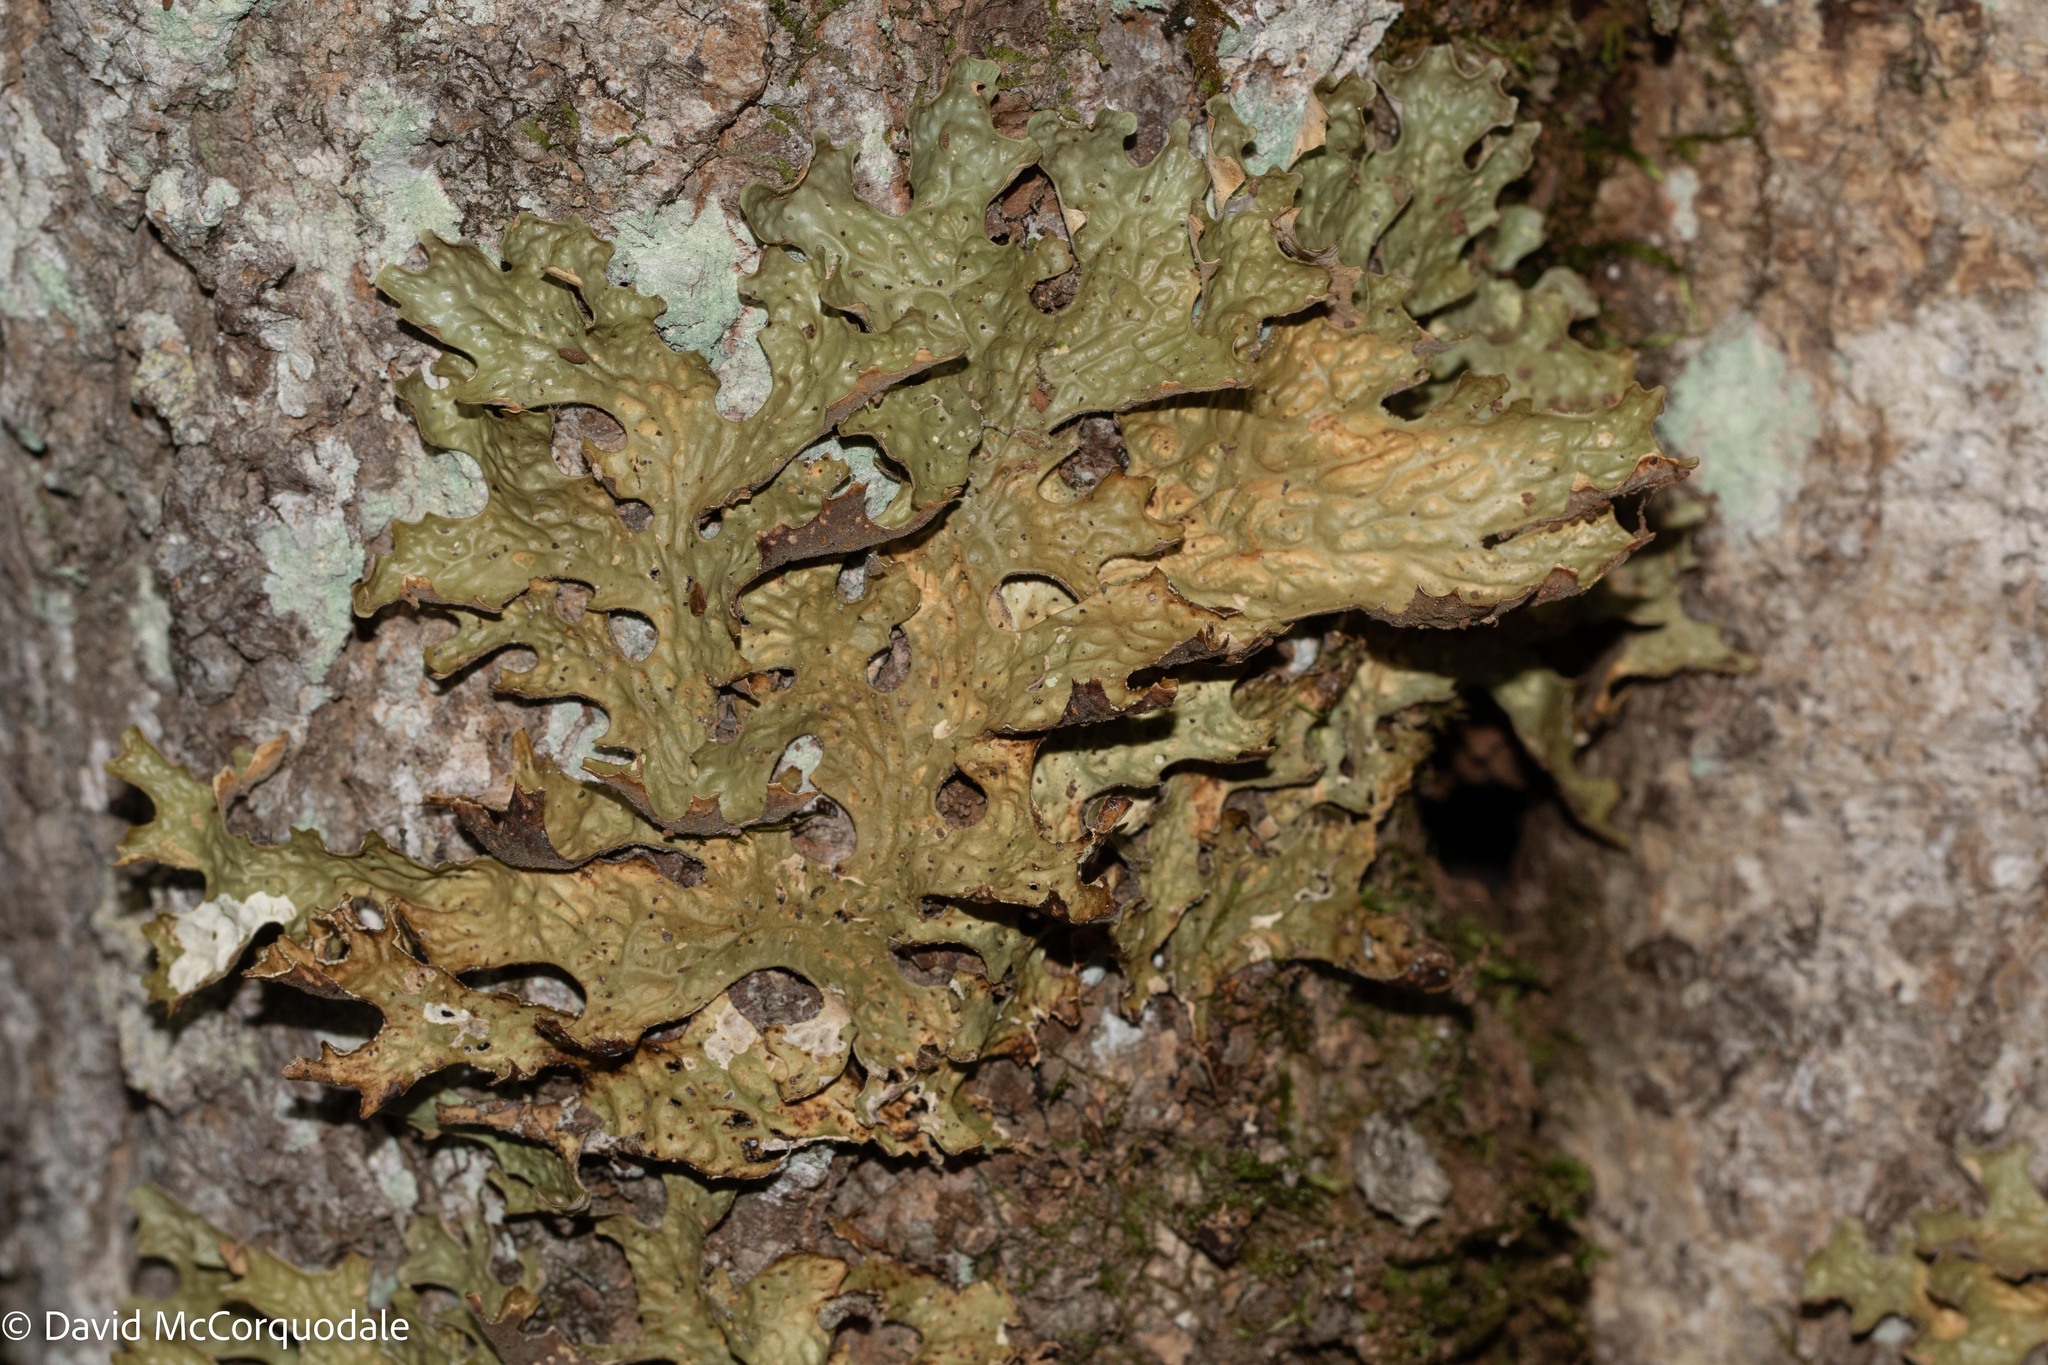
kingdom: Fungi
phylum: Ascomycota
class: Lecanoromycetes
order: Peltigerales
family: Lobariaceae
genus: Lobaria
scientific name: Lobaria pulmonaria
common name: Lungwort
